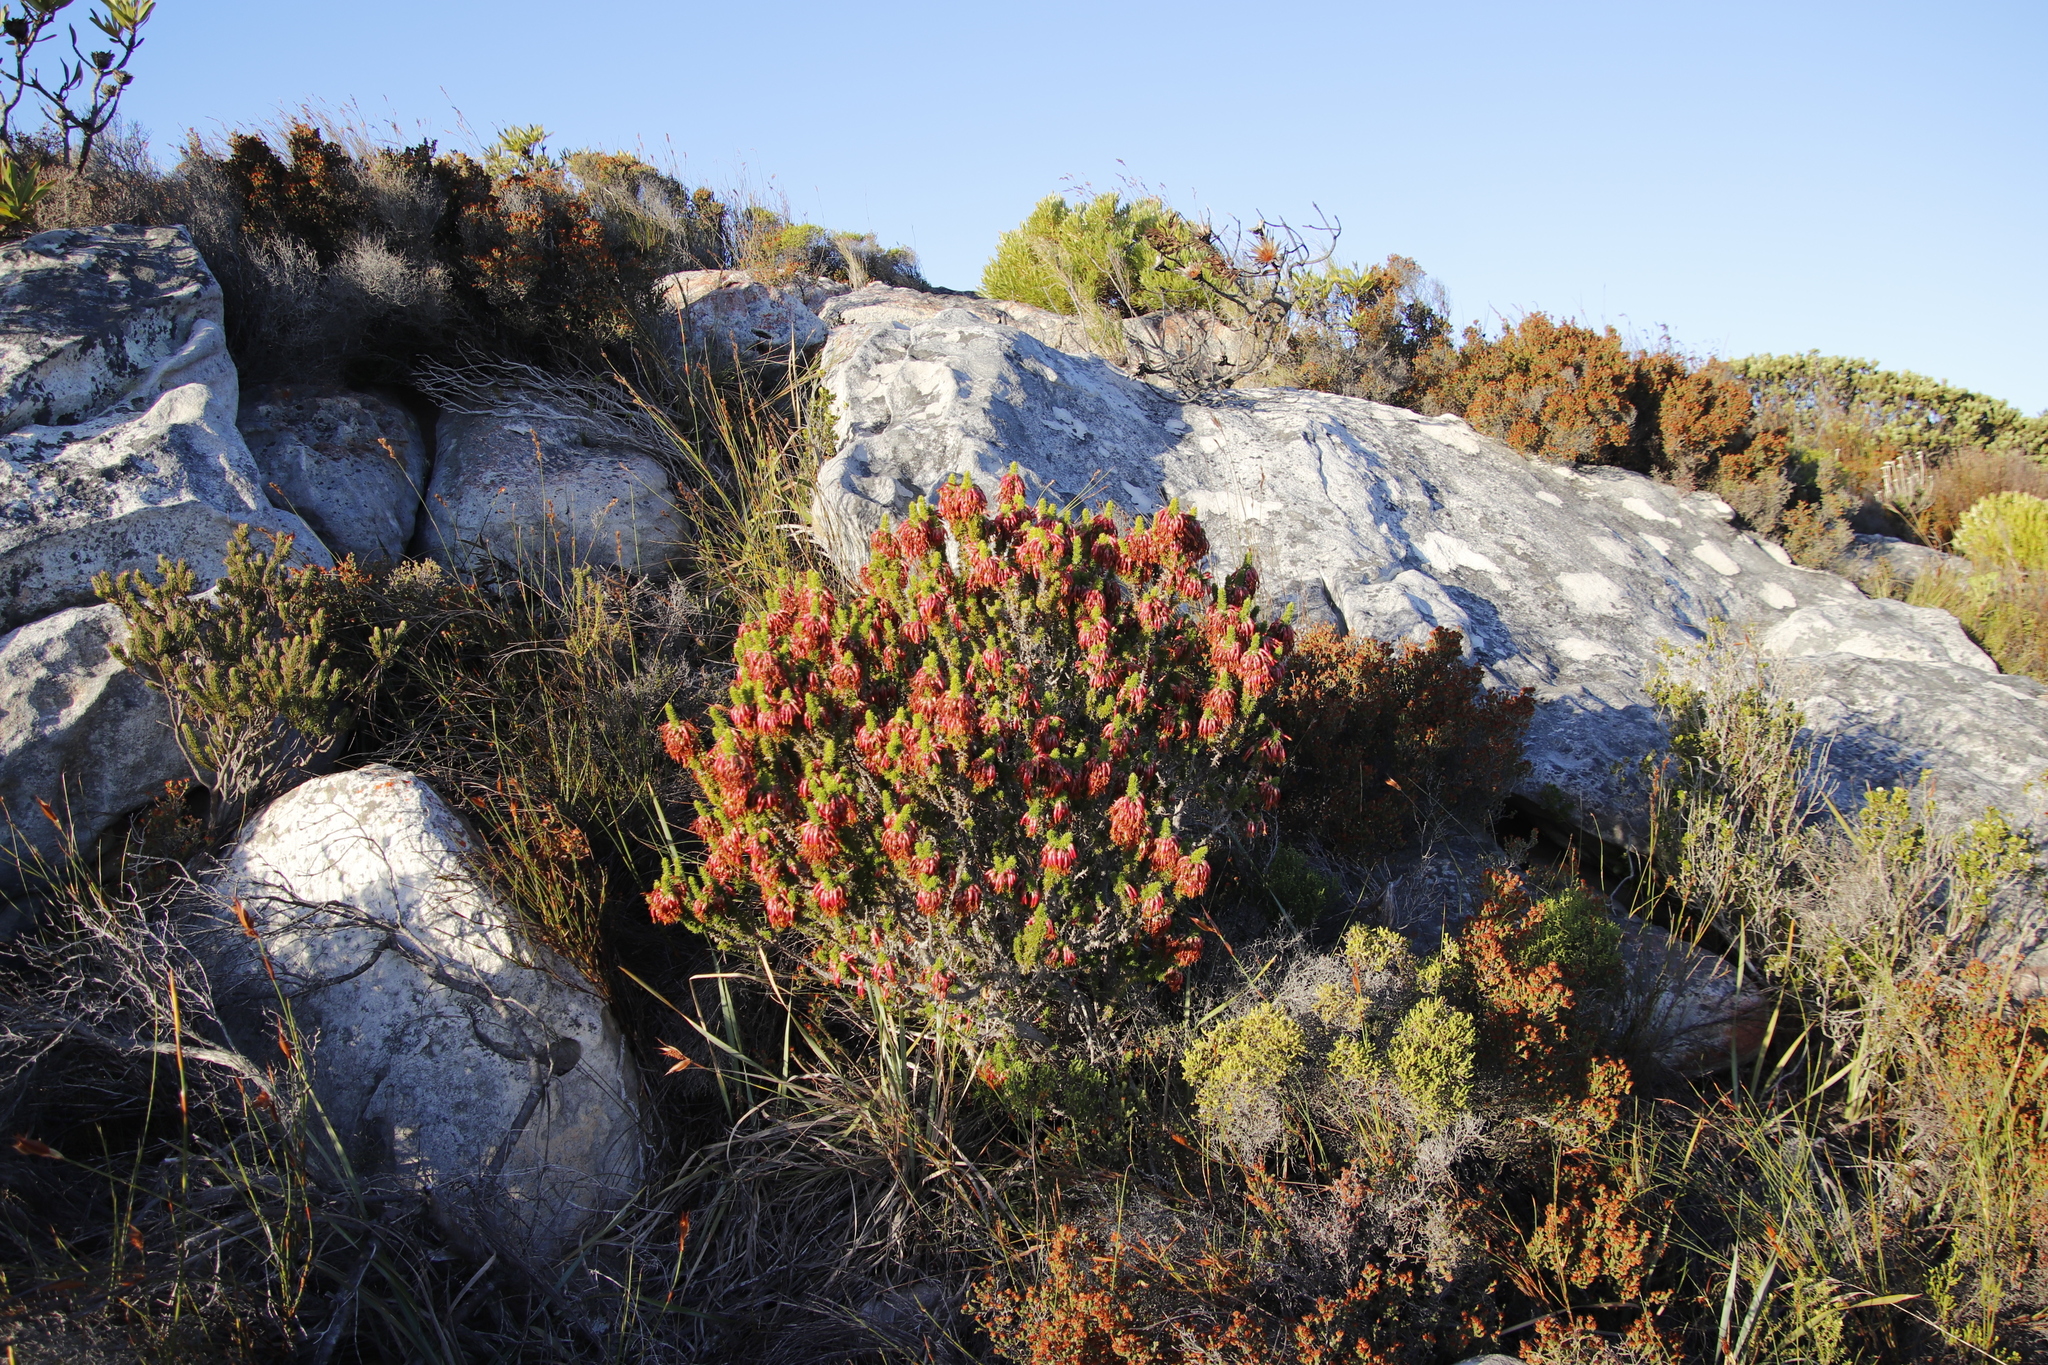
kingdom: Plantae
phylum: Tracheophyta
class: Magnoliopsida
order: Ericales
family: Ericaceae
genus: Erica
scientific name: Erica coccinea
